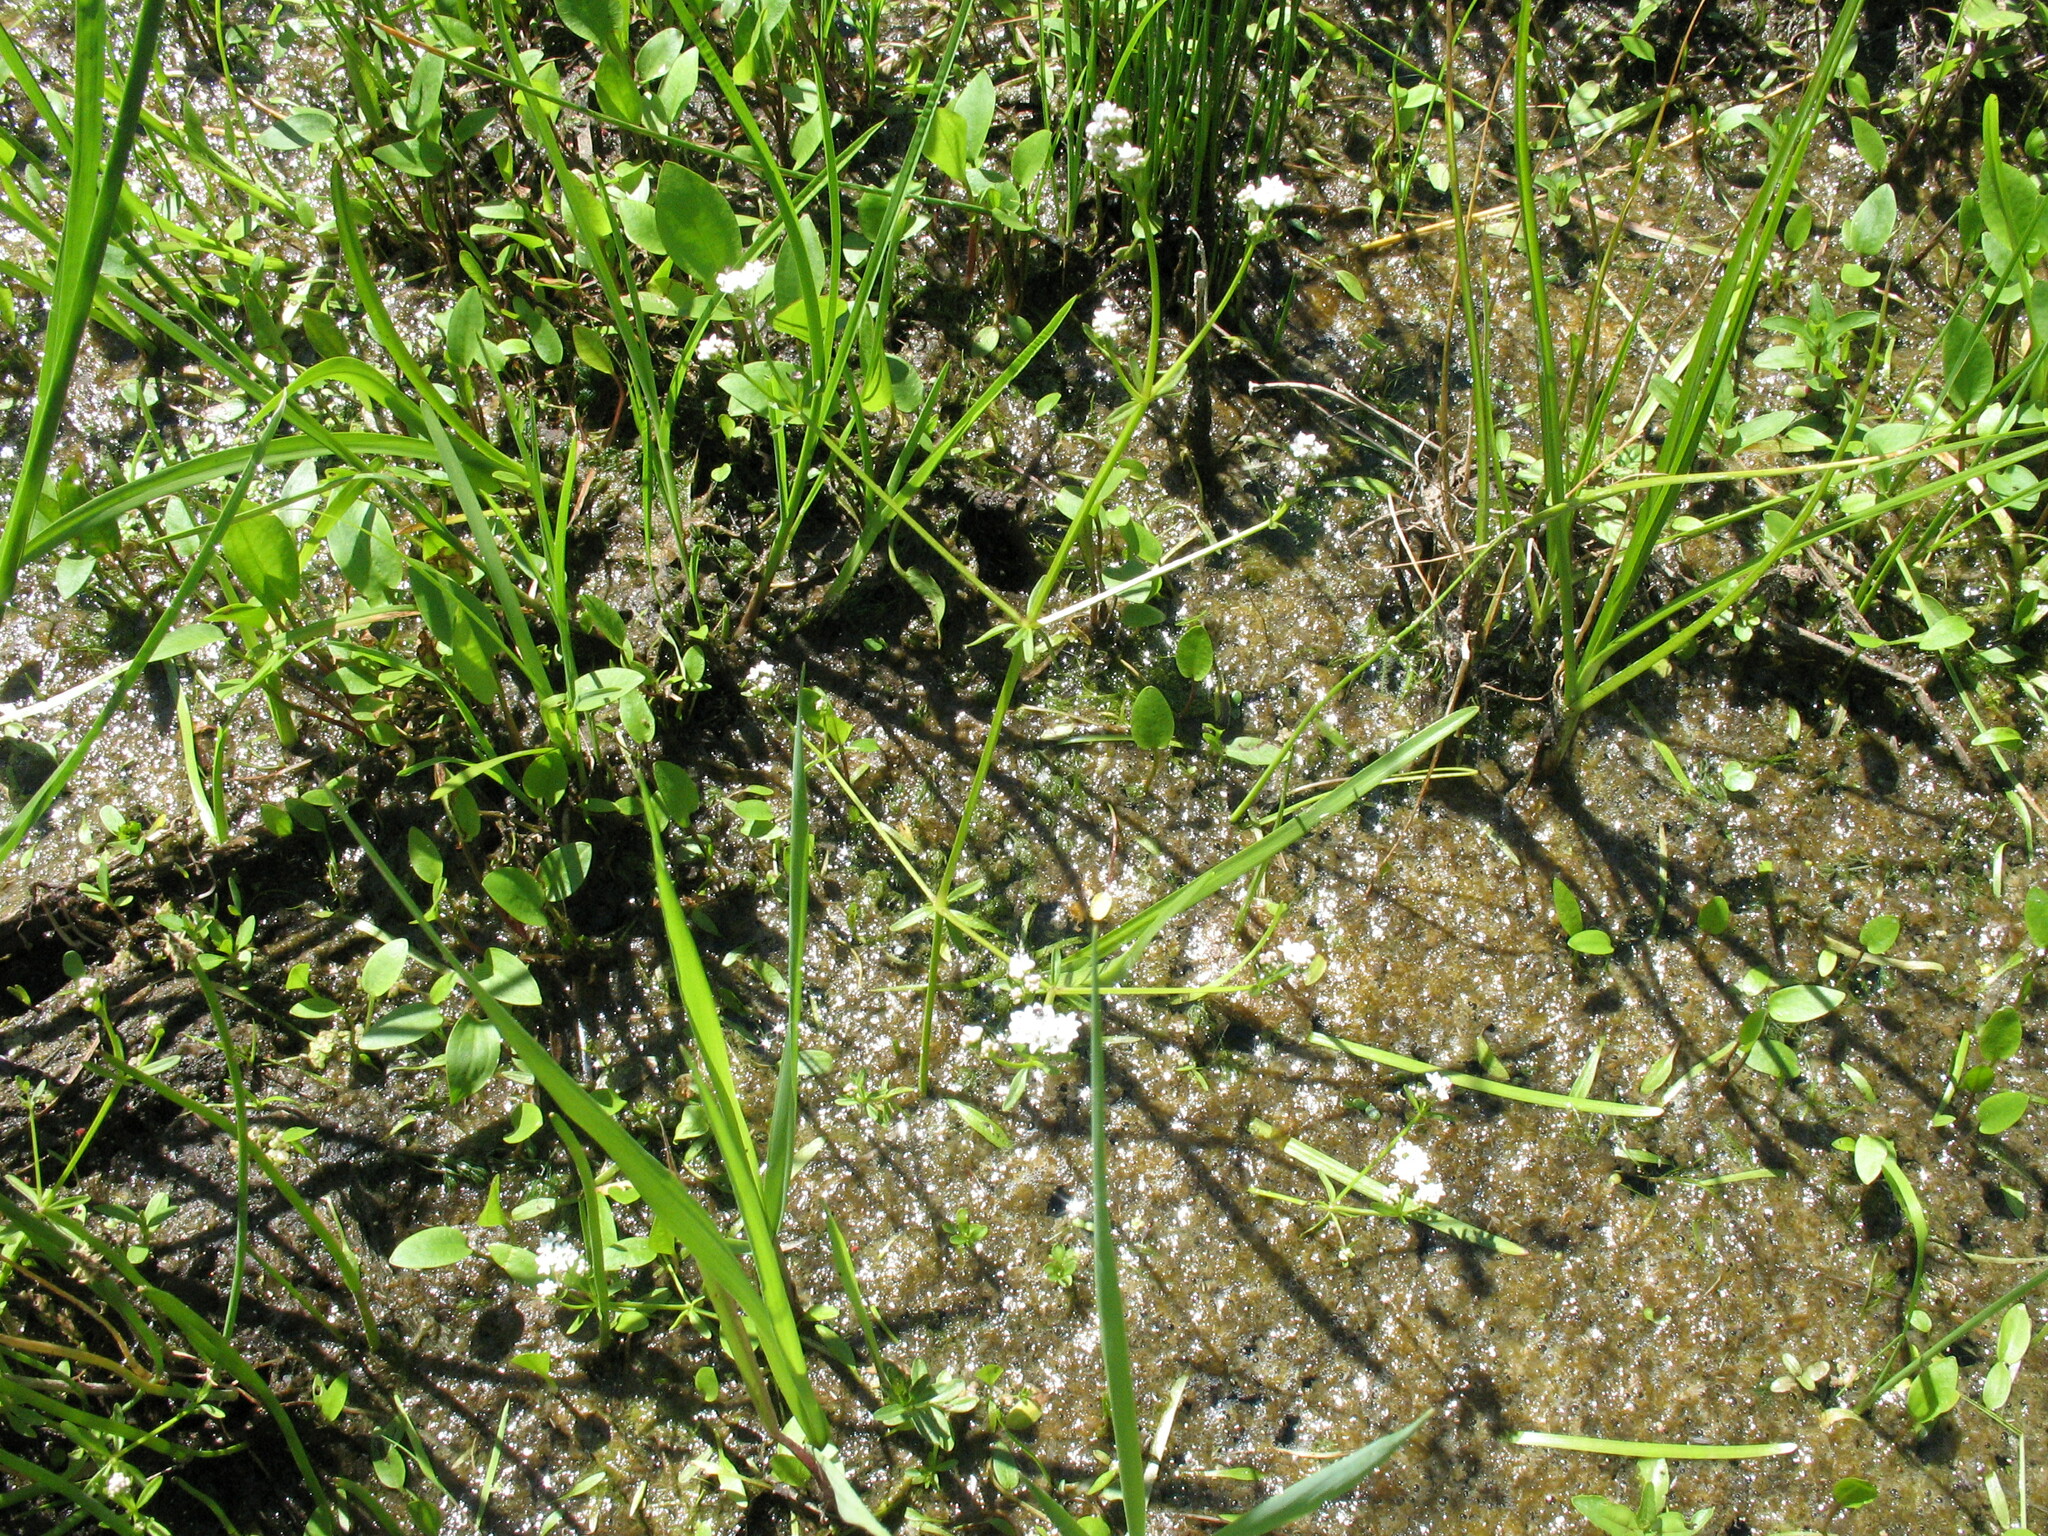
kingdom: Plantae
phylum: Tracheophyta
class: Magnoliopsida
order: Gentianales
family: Rubiaceae
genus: Galium
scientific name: Galium palustre
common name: Common marsh-bedstraw
